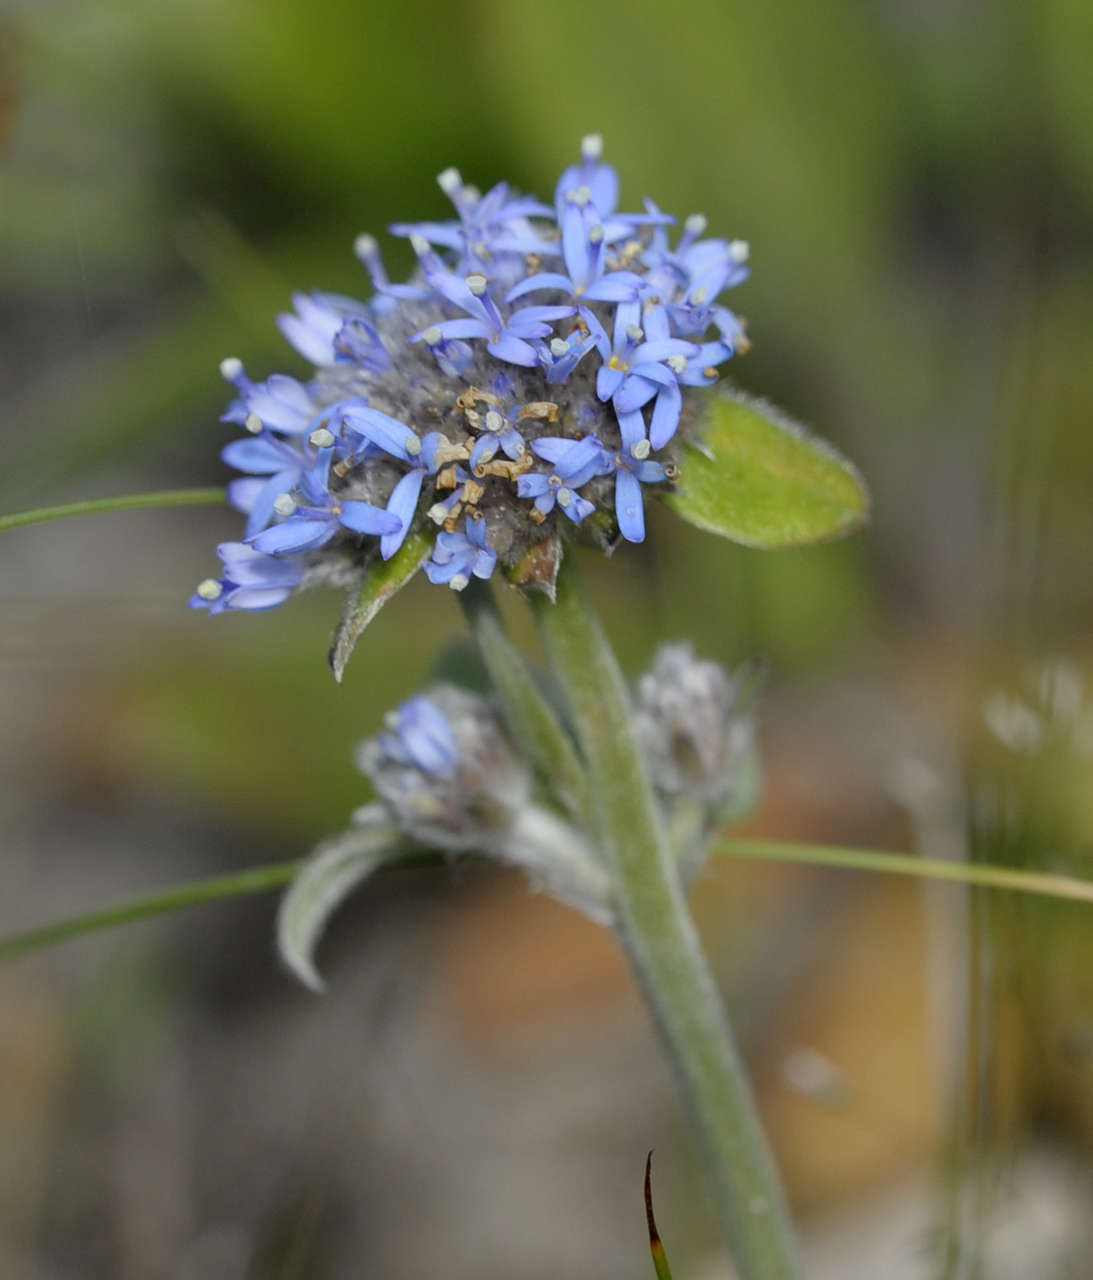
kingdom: Plantae
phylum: Tracheophyta
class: Magnoliopsida
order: Asterales
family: Goodeniaceae
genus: Brunonia
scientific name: Brunonia australis
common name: Blue pincushion
